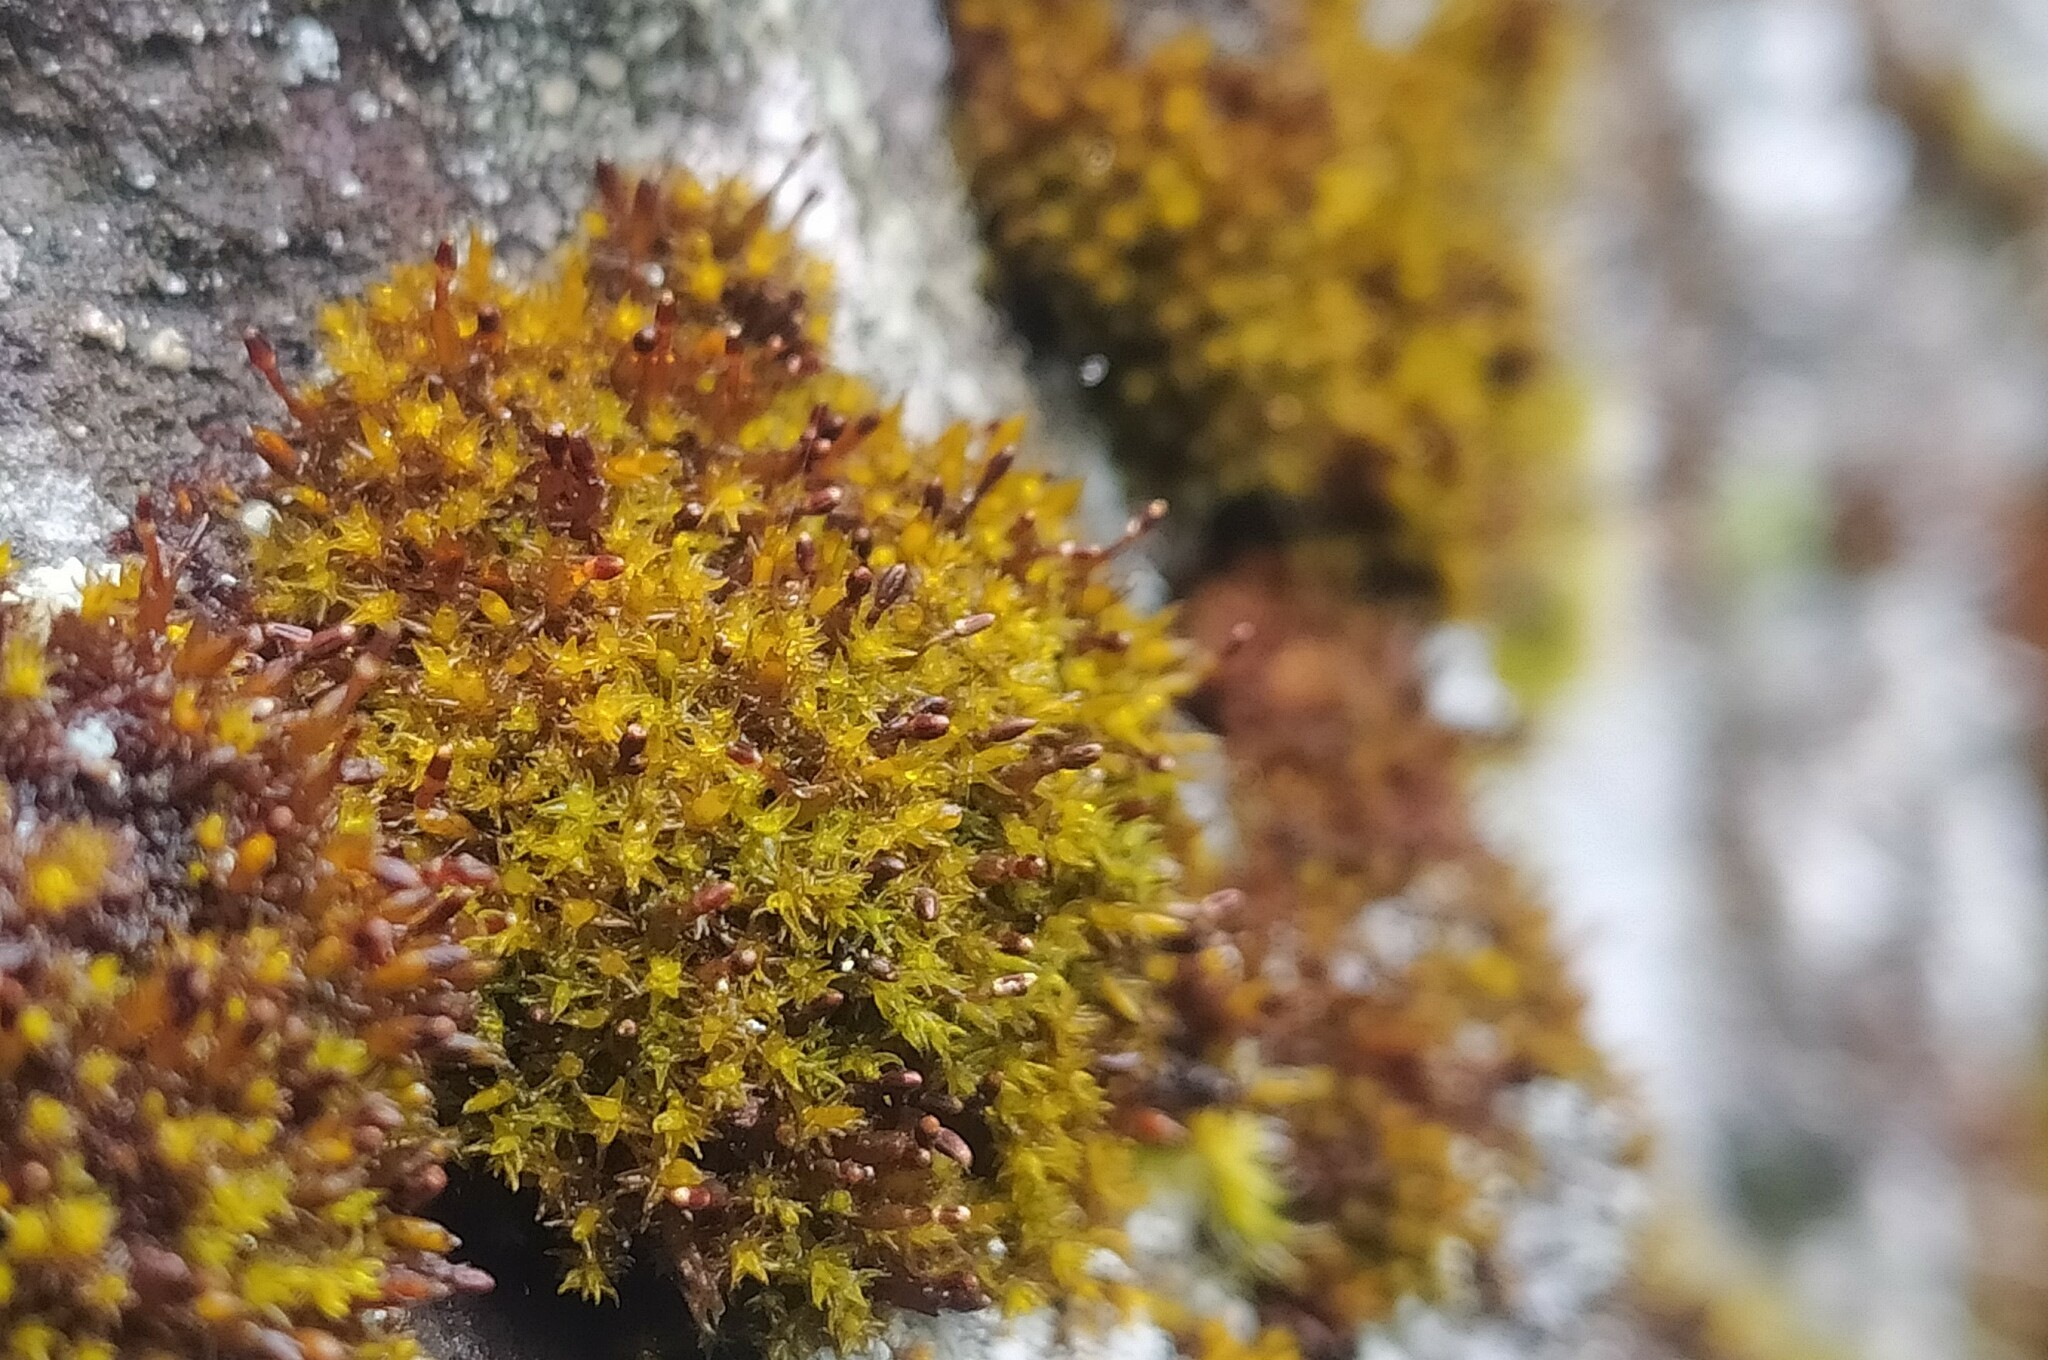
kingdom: Plantae
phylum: Bryophyta
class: Andreaeopsida
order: Andreaeales
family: Andreaeaceae
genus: Andreaea
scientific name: Andreaea rupestris
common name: Black rock moss
